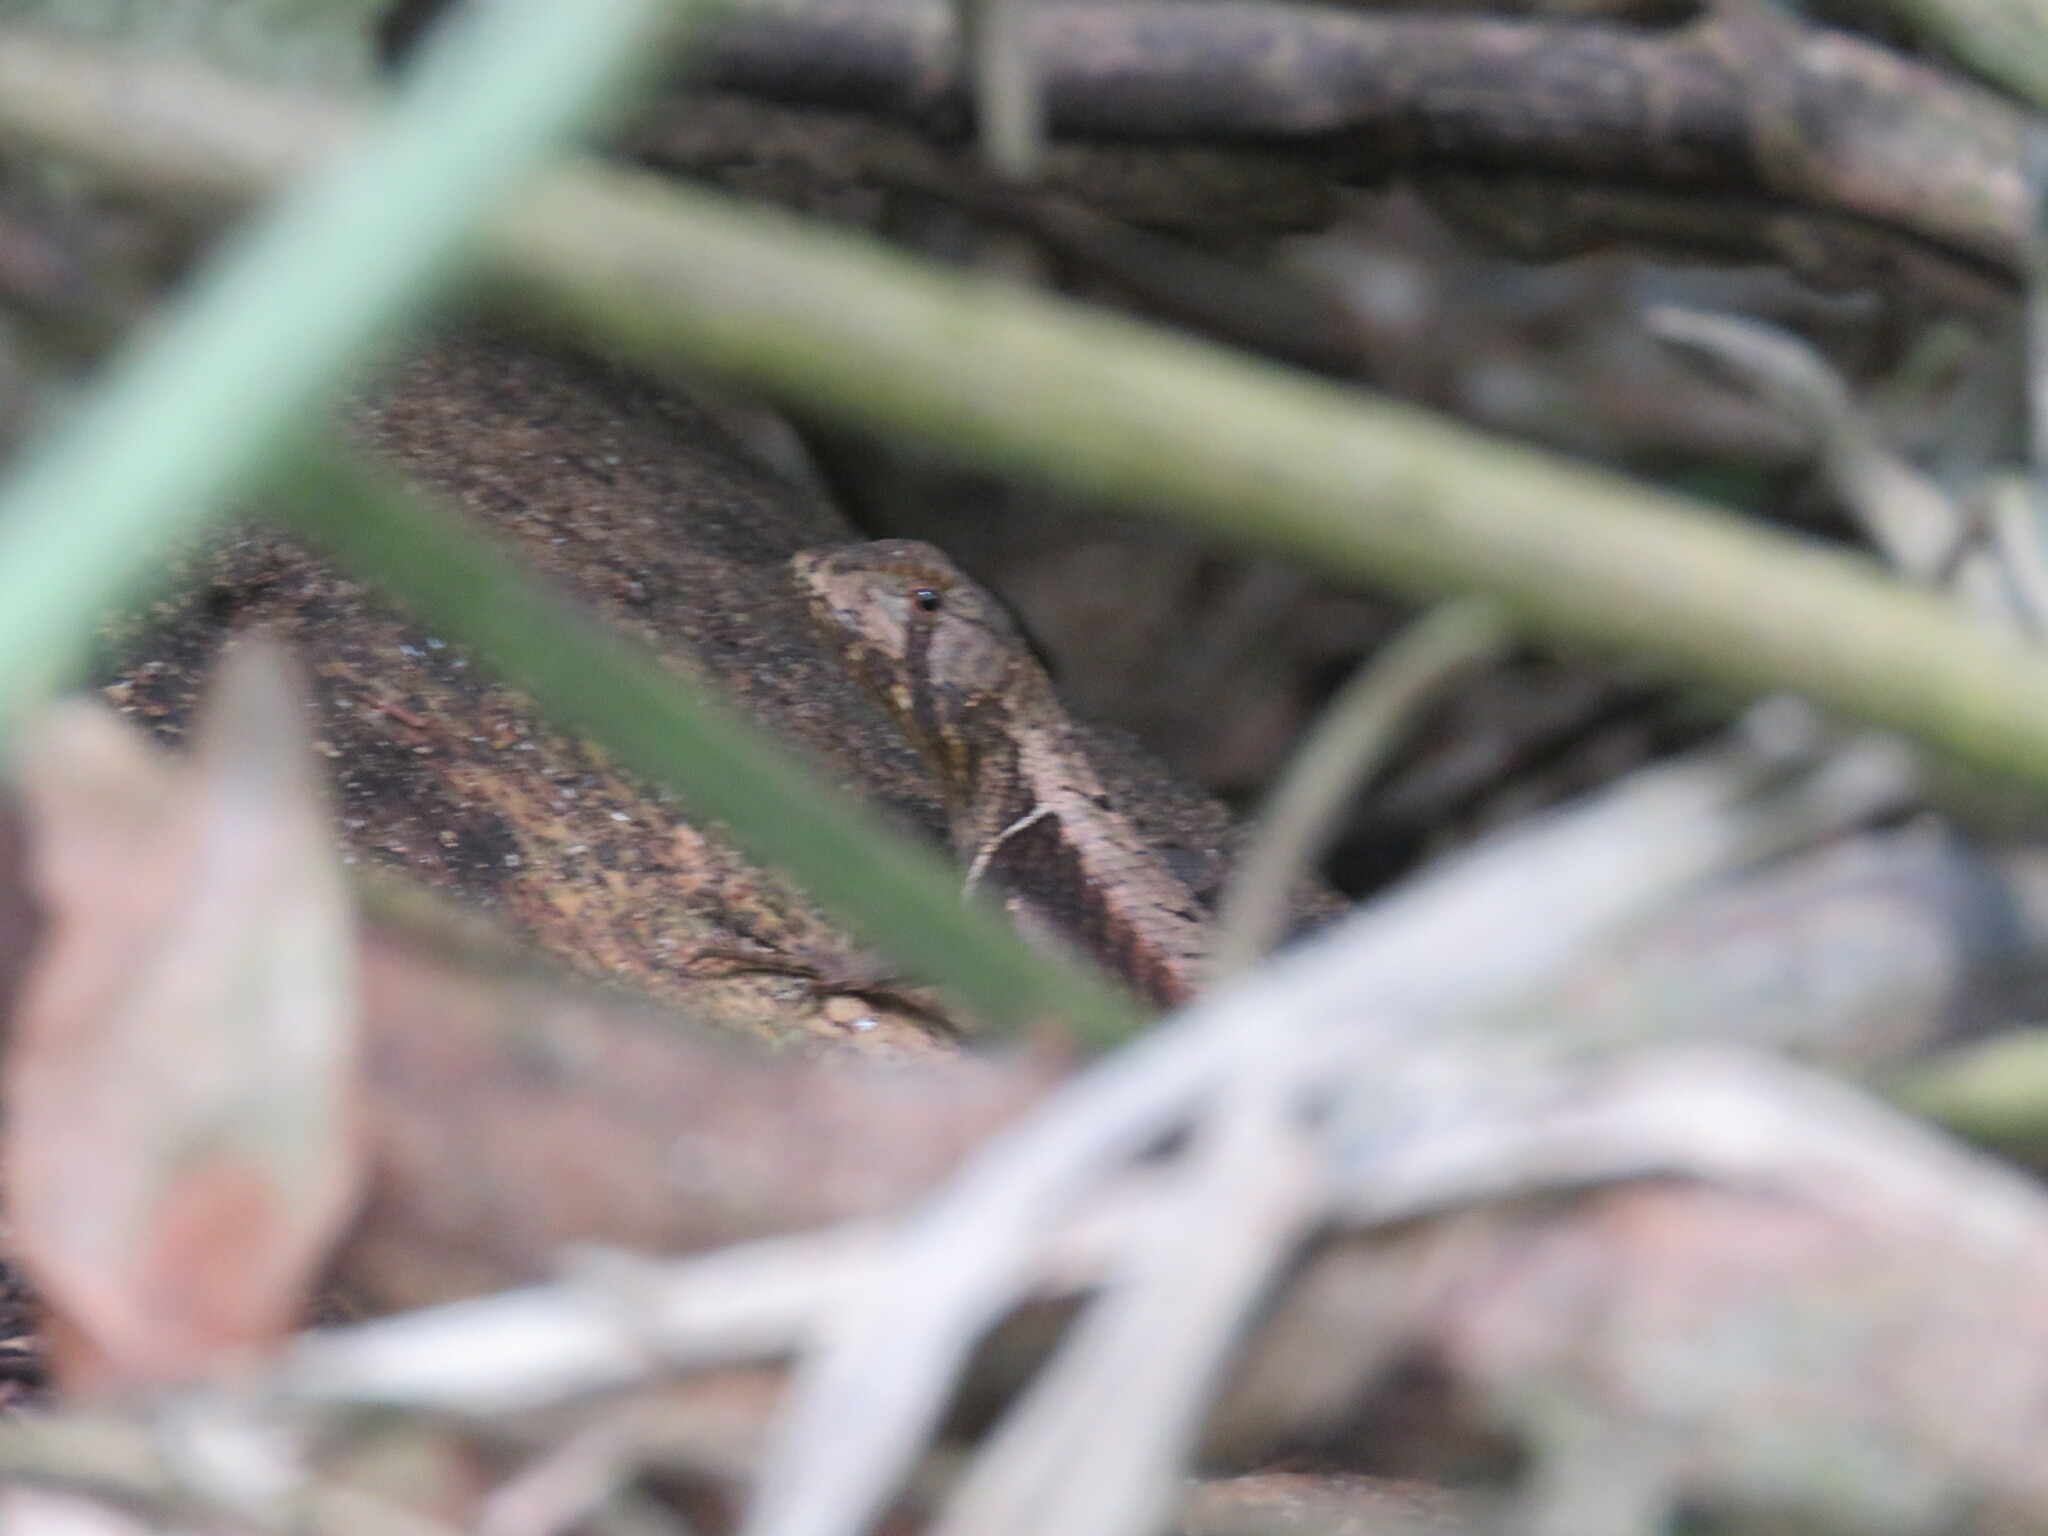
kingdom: Animalia
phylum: Chordata
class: Squamata
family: Tropiduridae
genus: Stenocercus
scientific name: Stenocercus caducus
